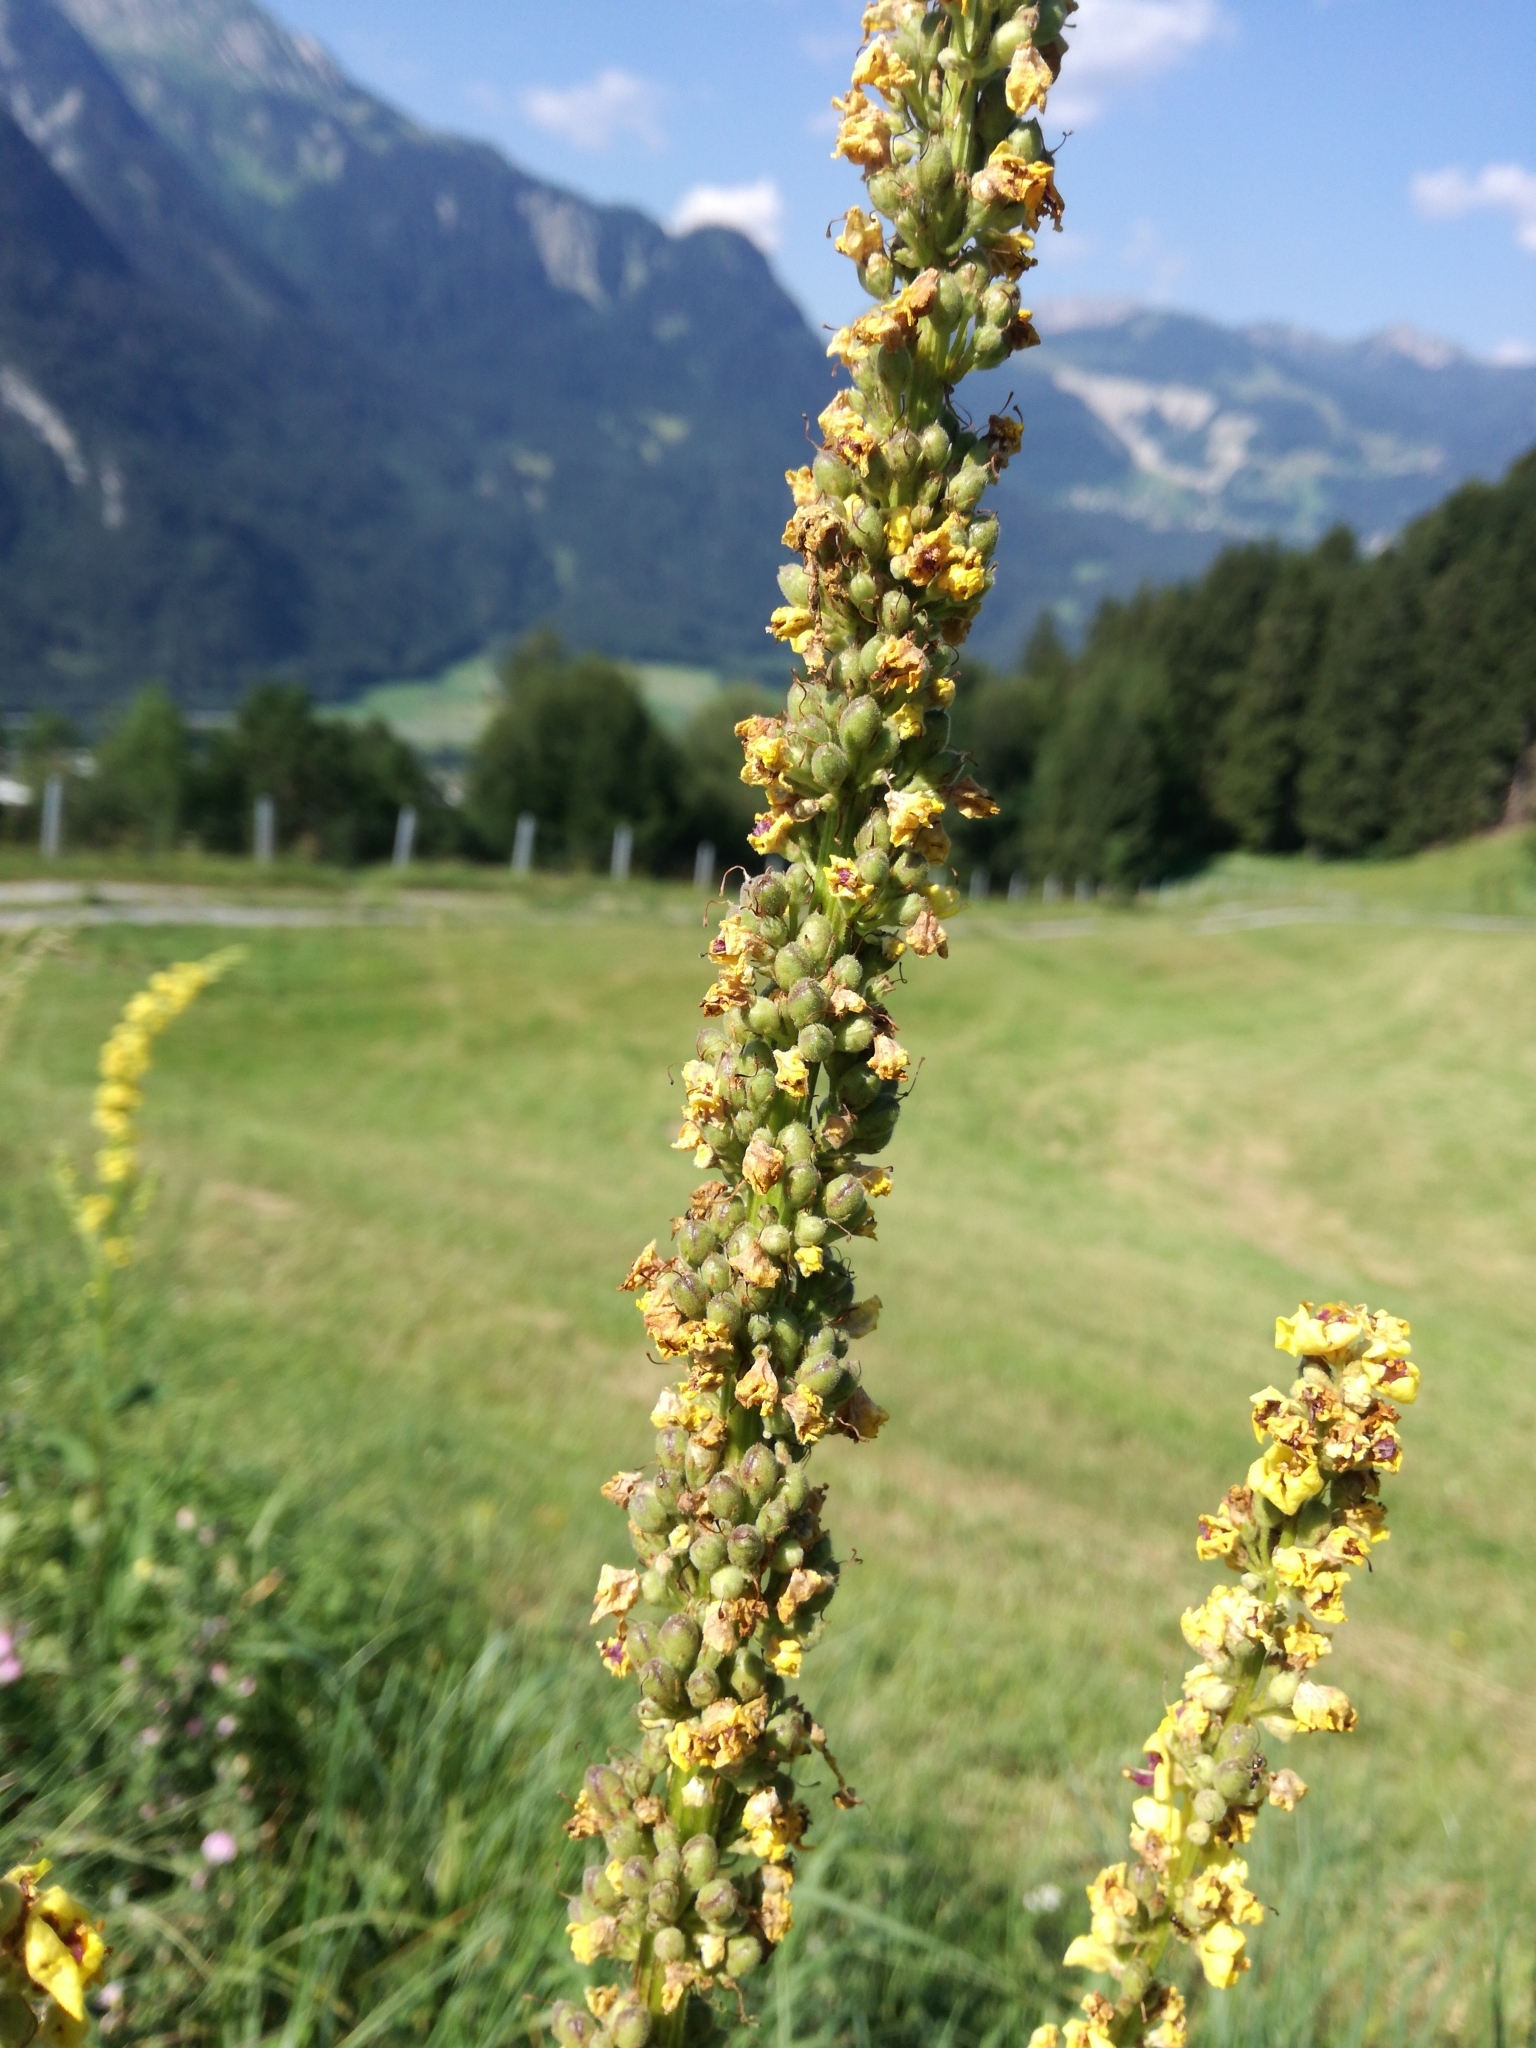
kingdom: Plantae
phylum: Tracheophyta
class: Magnoliopsida
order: Lamiales
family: Scrophulariaceae
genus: Verbascum
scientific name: Verbascum nigrum
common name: Dark mullein
